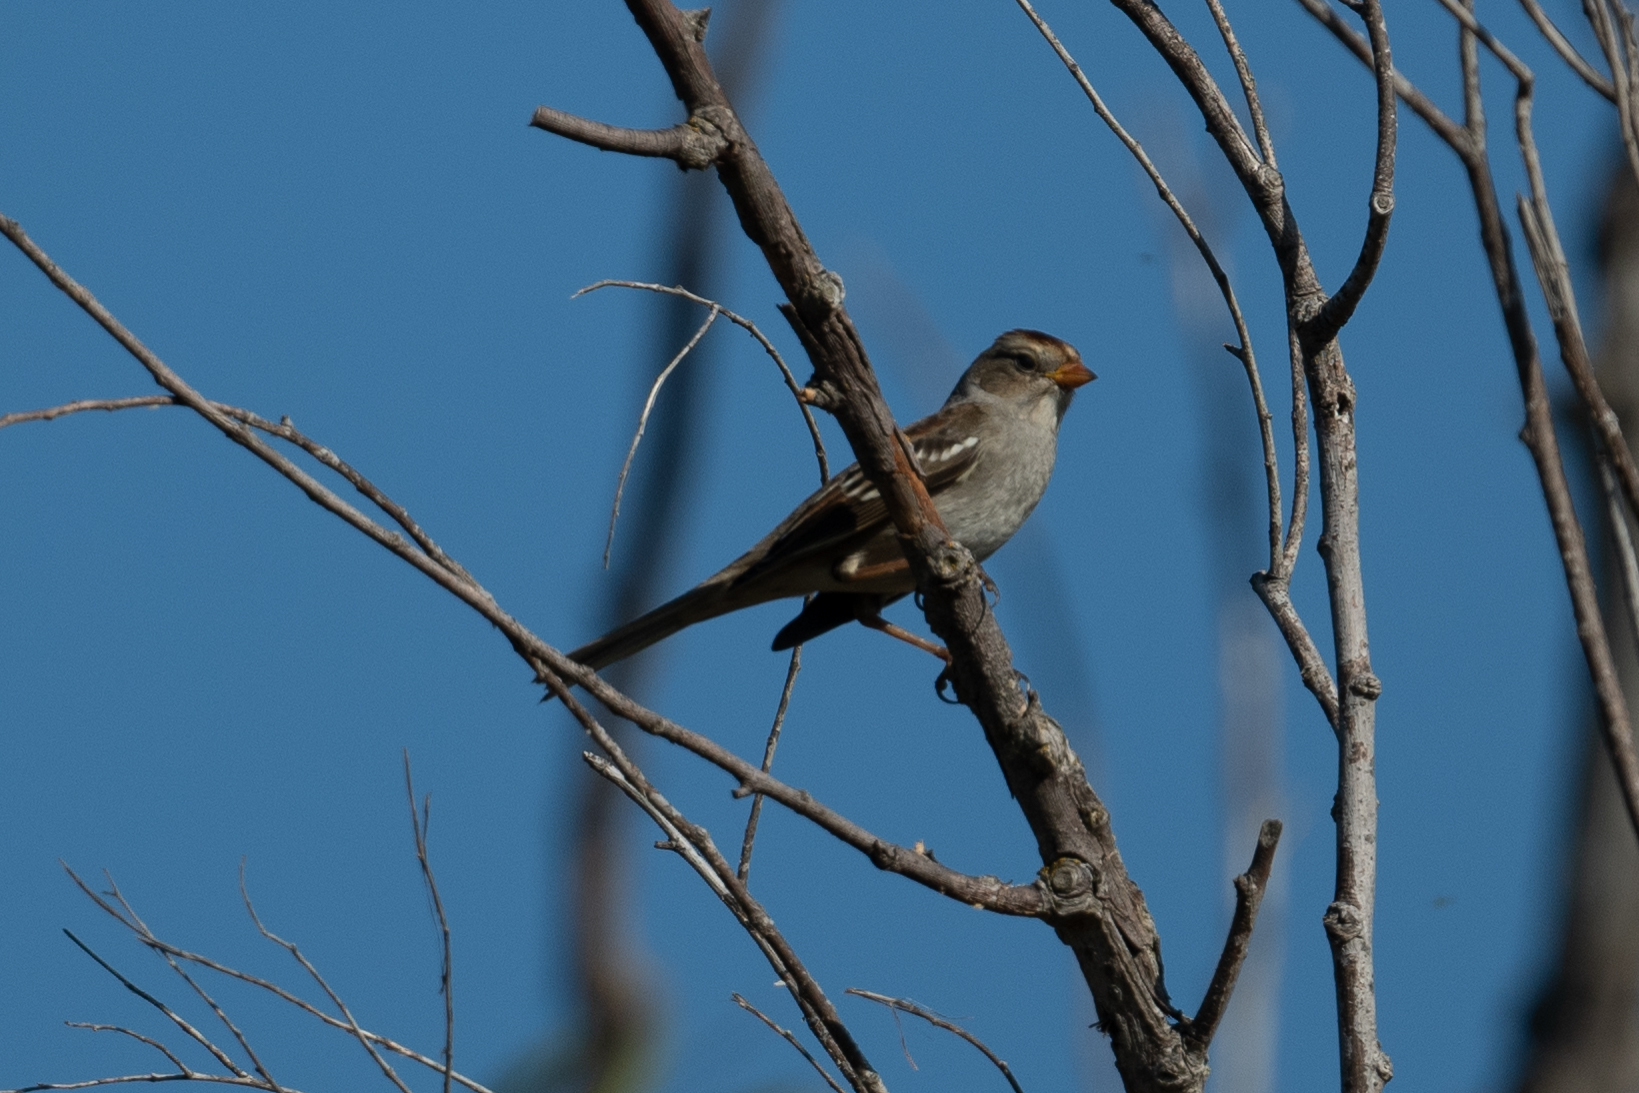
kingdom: Animalia
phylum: Chordata
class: Aves
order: Passeriformes
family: Passerellidae
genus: Zonotrichia
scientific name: Zonotrichia leucophrys
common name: White-crowned sparrow
